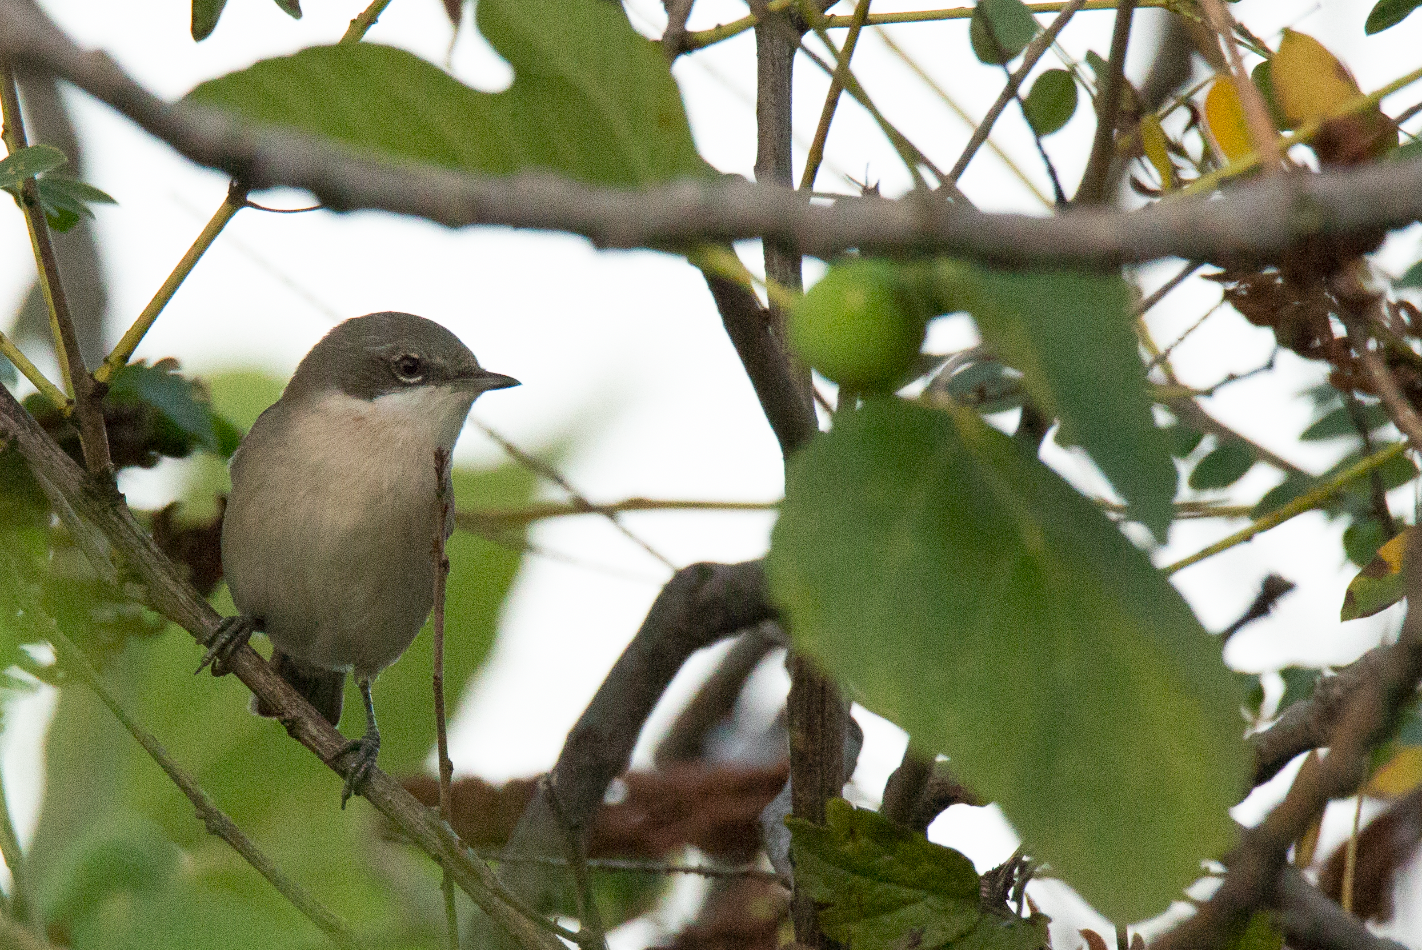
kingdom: Animalia
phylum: Chordata
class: Aves
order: Passeriformes
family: Sylviidae
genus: Sylvia
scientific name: Sylvia curruca
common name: Lesser whitethroat
